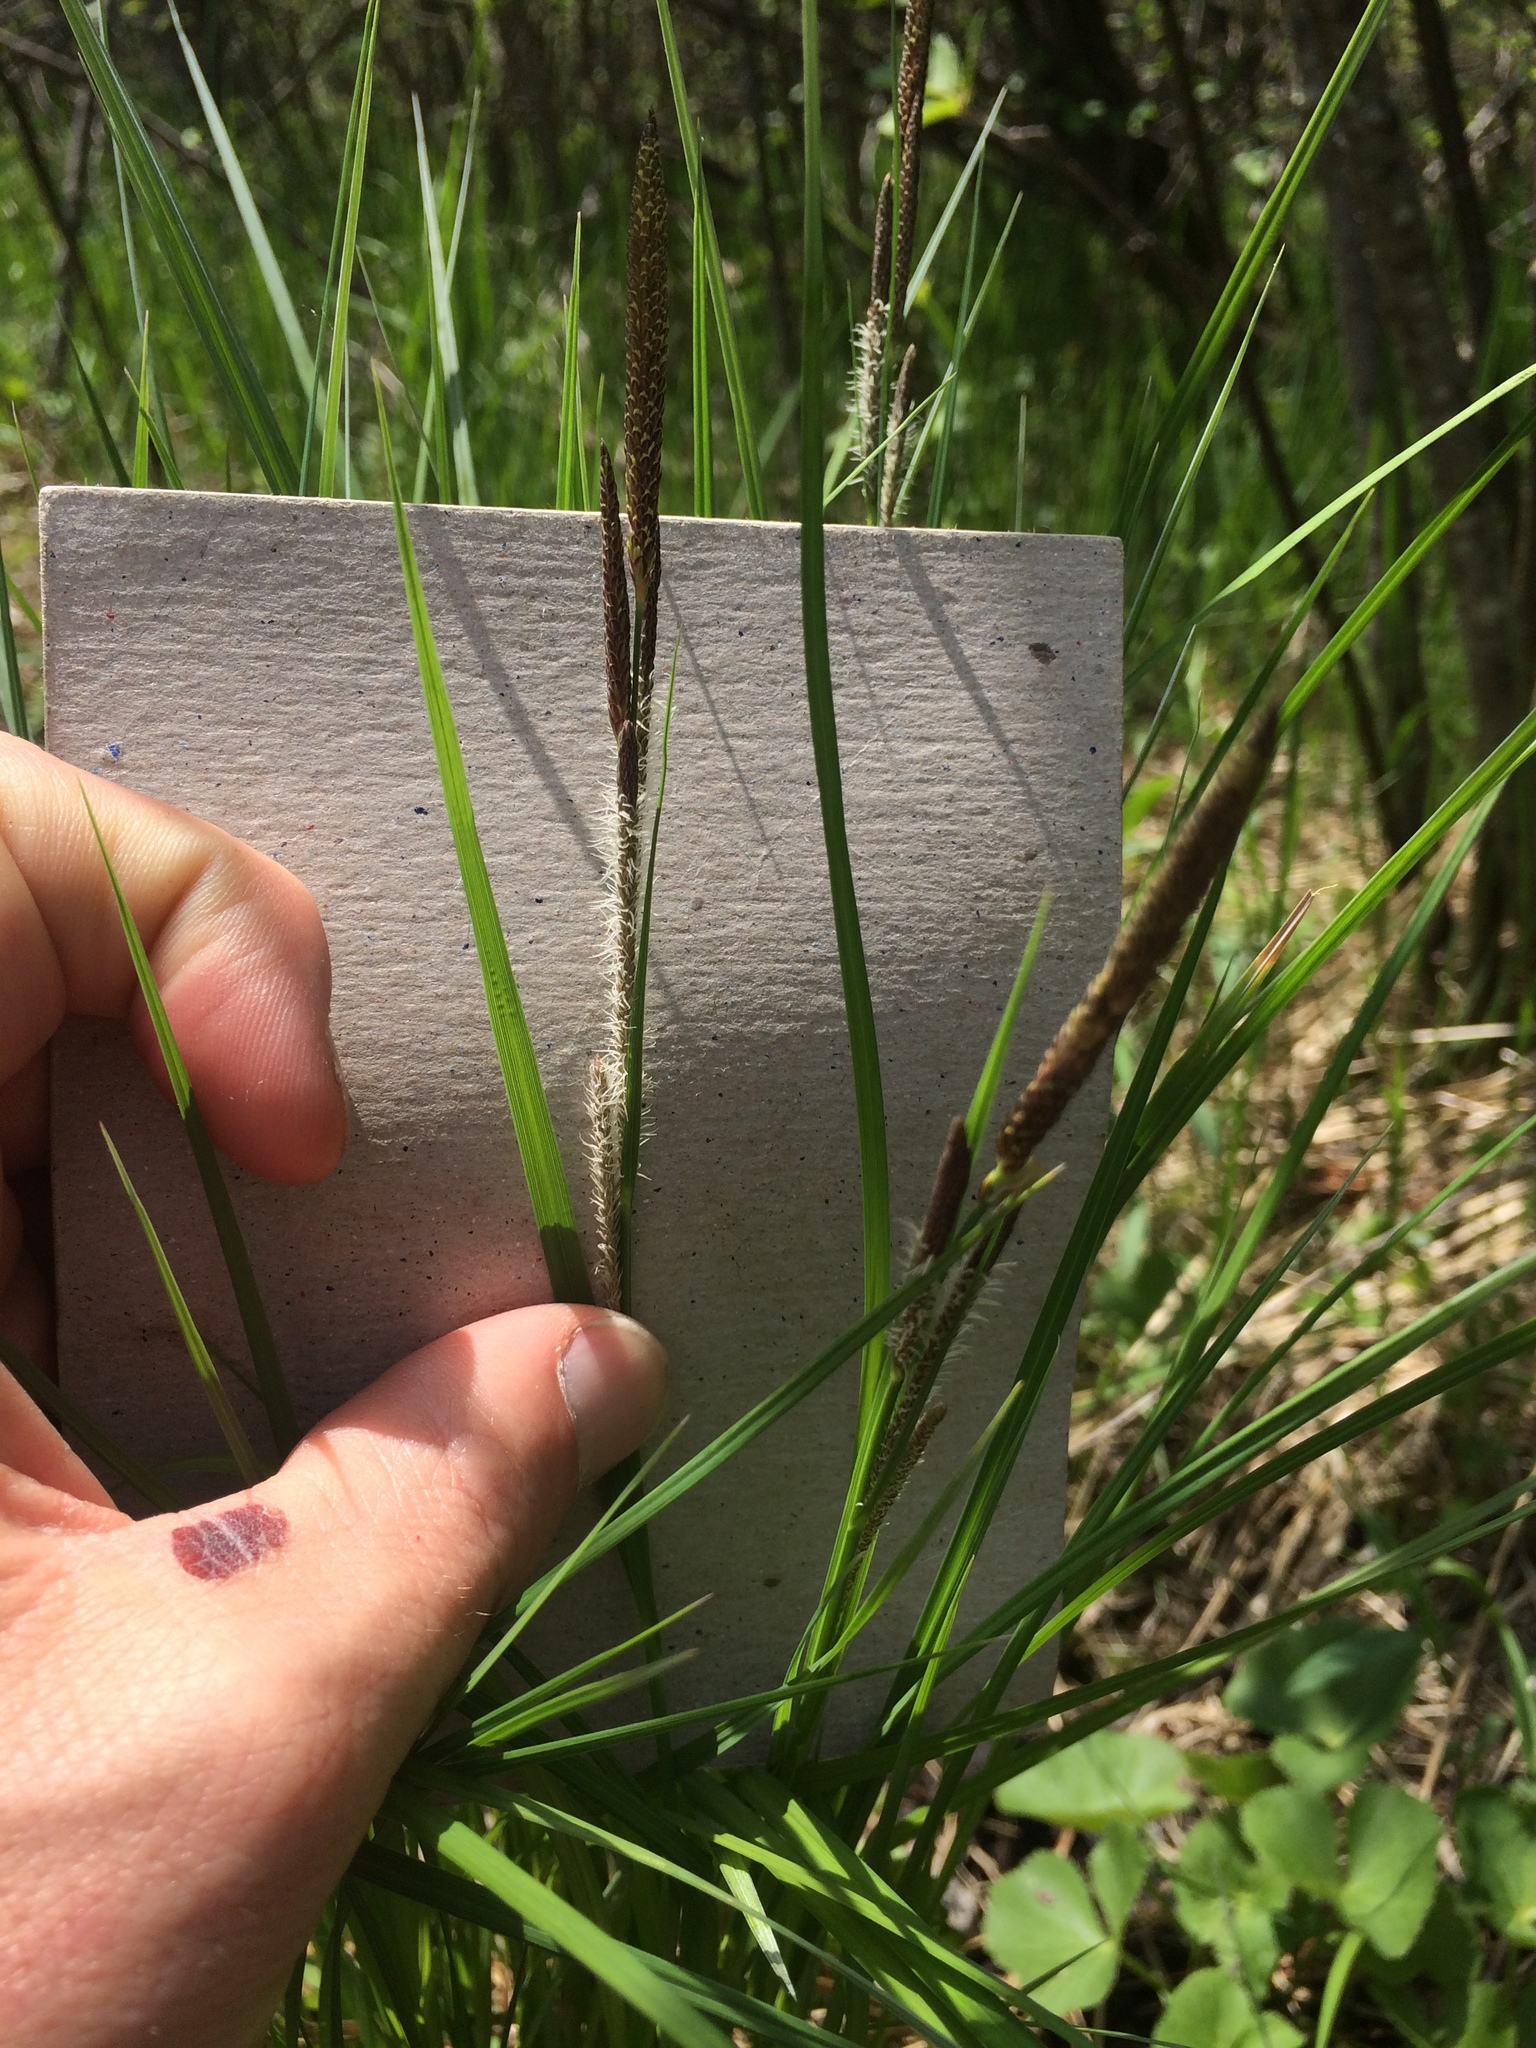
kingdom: Plantae
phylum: Tracheophyta
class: Liliopsida
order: Poales
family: Cyperaceae
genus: Carex
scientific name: Carex stricta
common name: Hummock sedge
